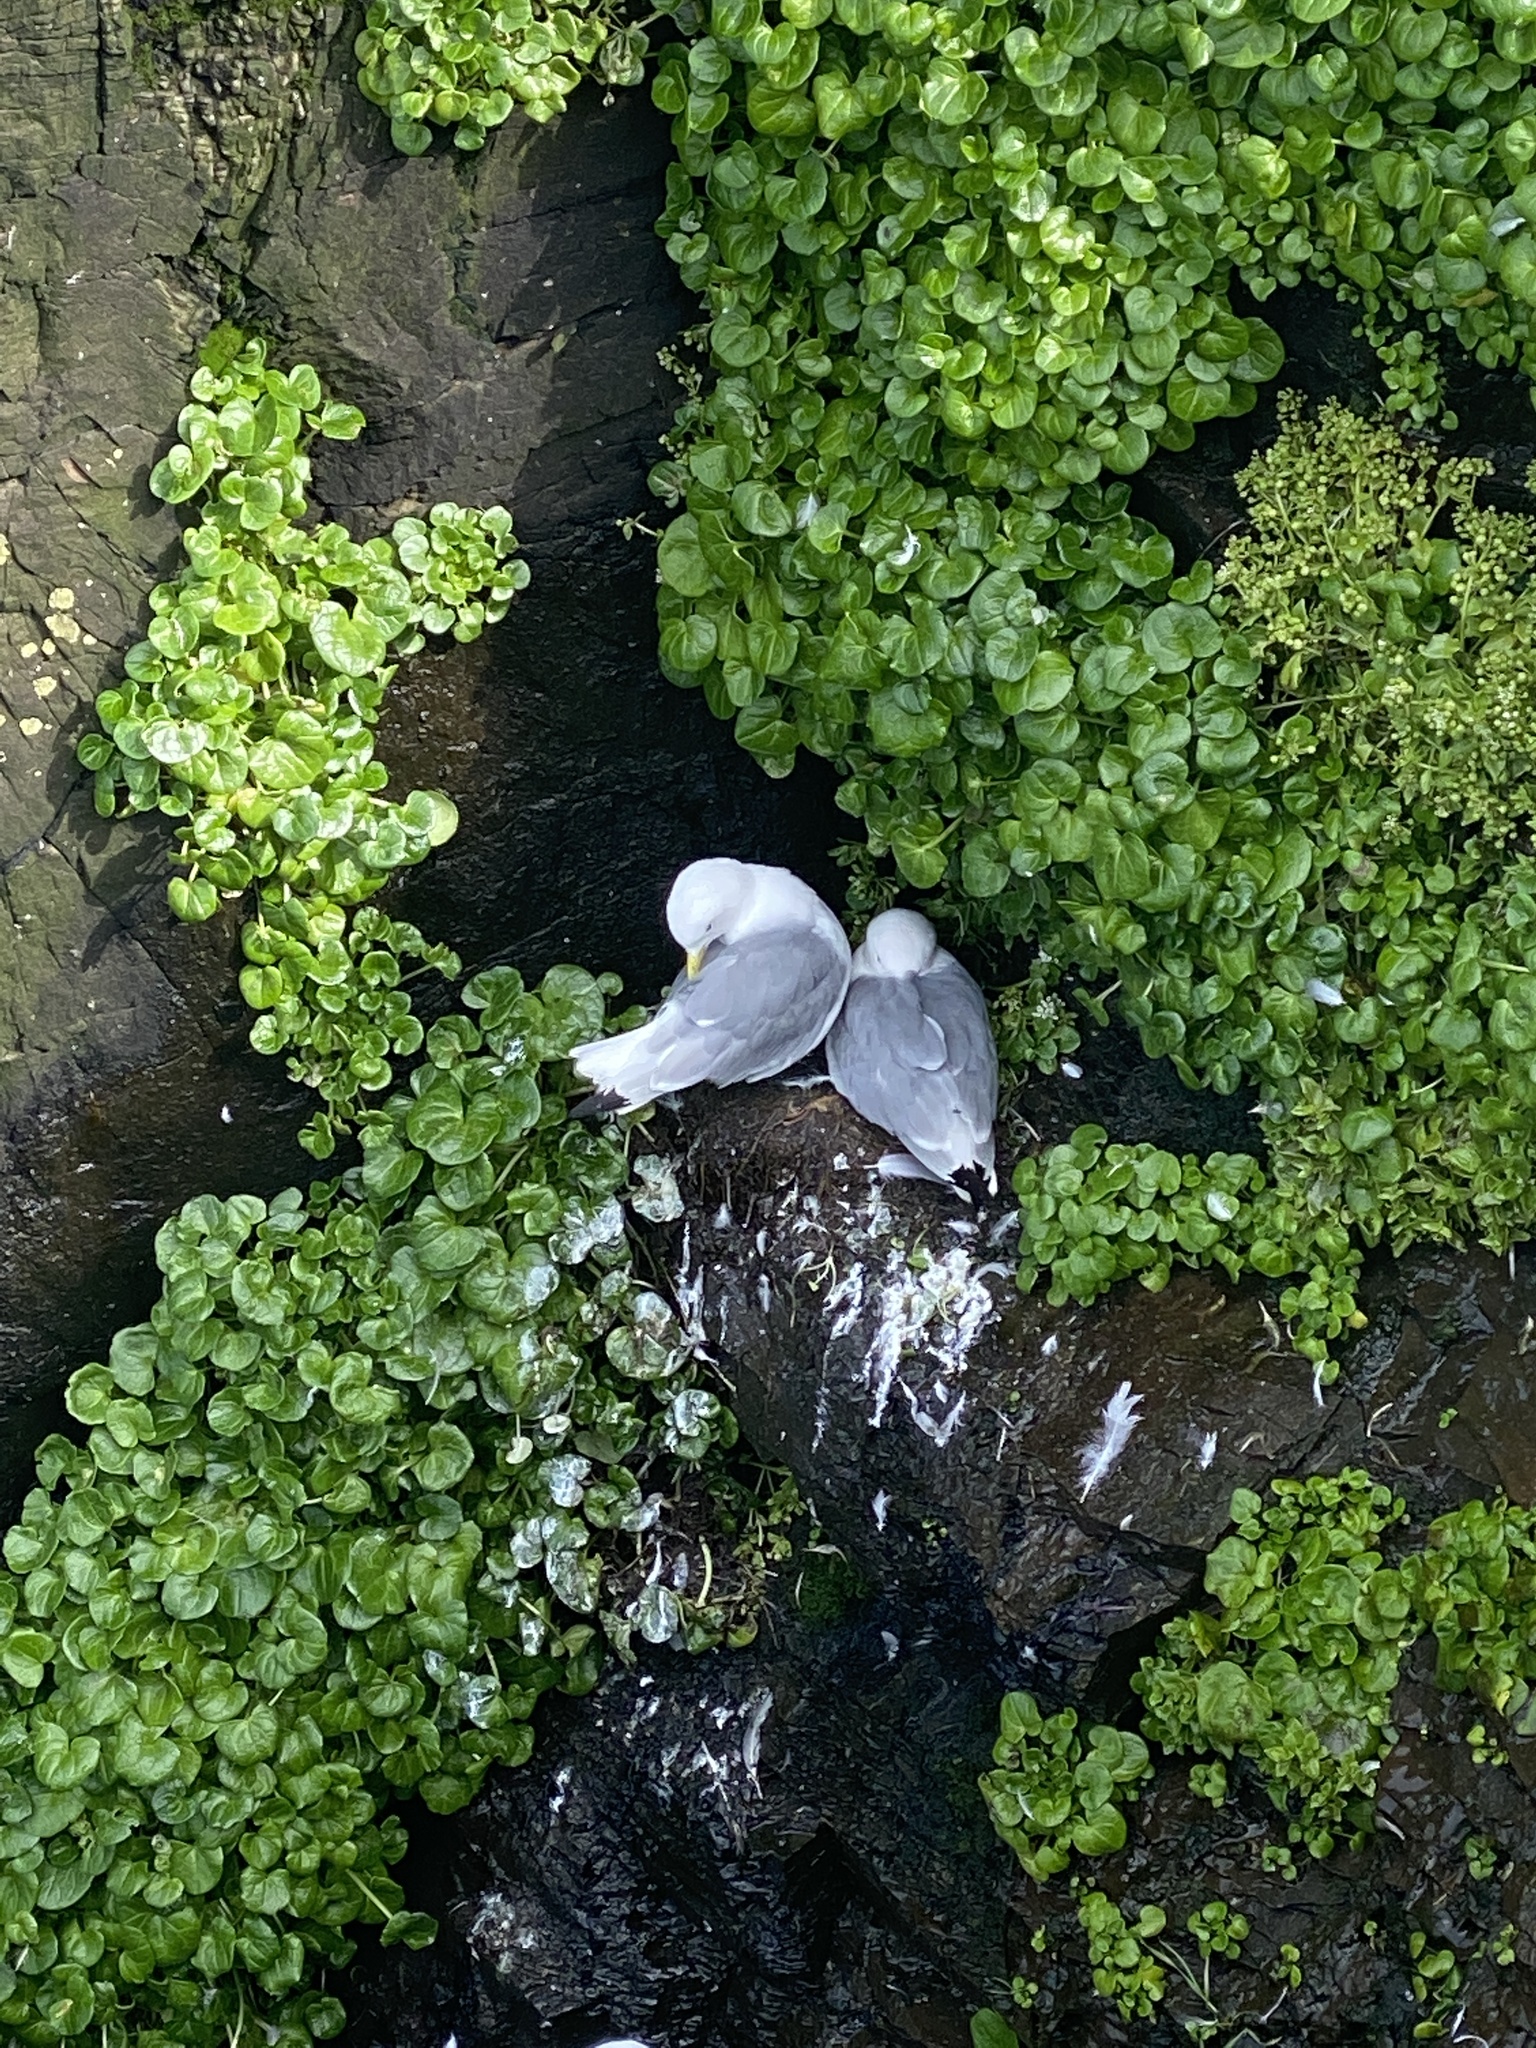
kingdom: Animalia
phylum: Chordata
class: Aves
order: Charadriiformes
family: Laridae
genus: Rissa
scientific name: Rissa tridactyla
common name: Black-legged kittiwake
